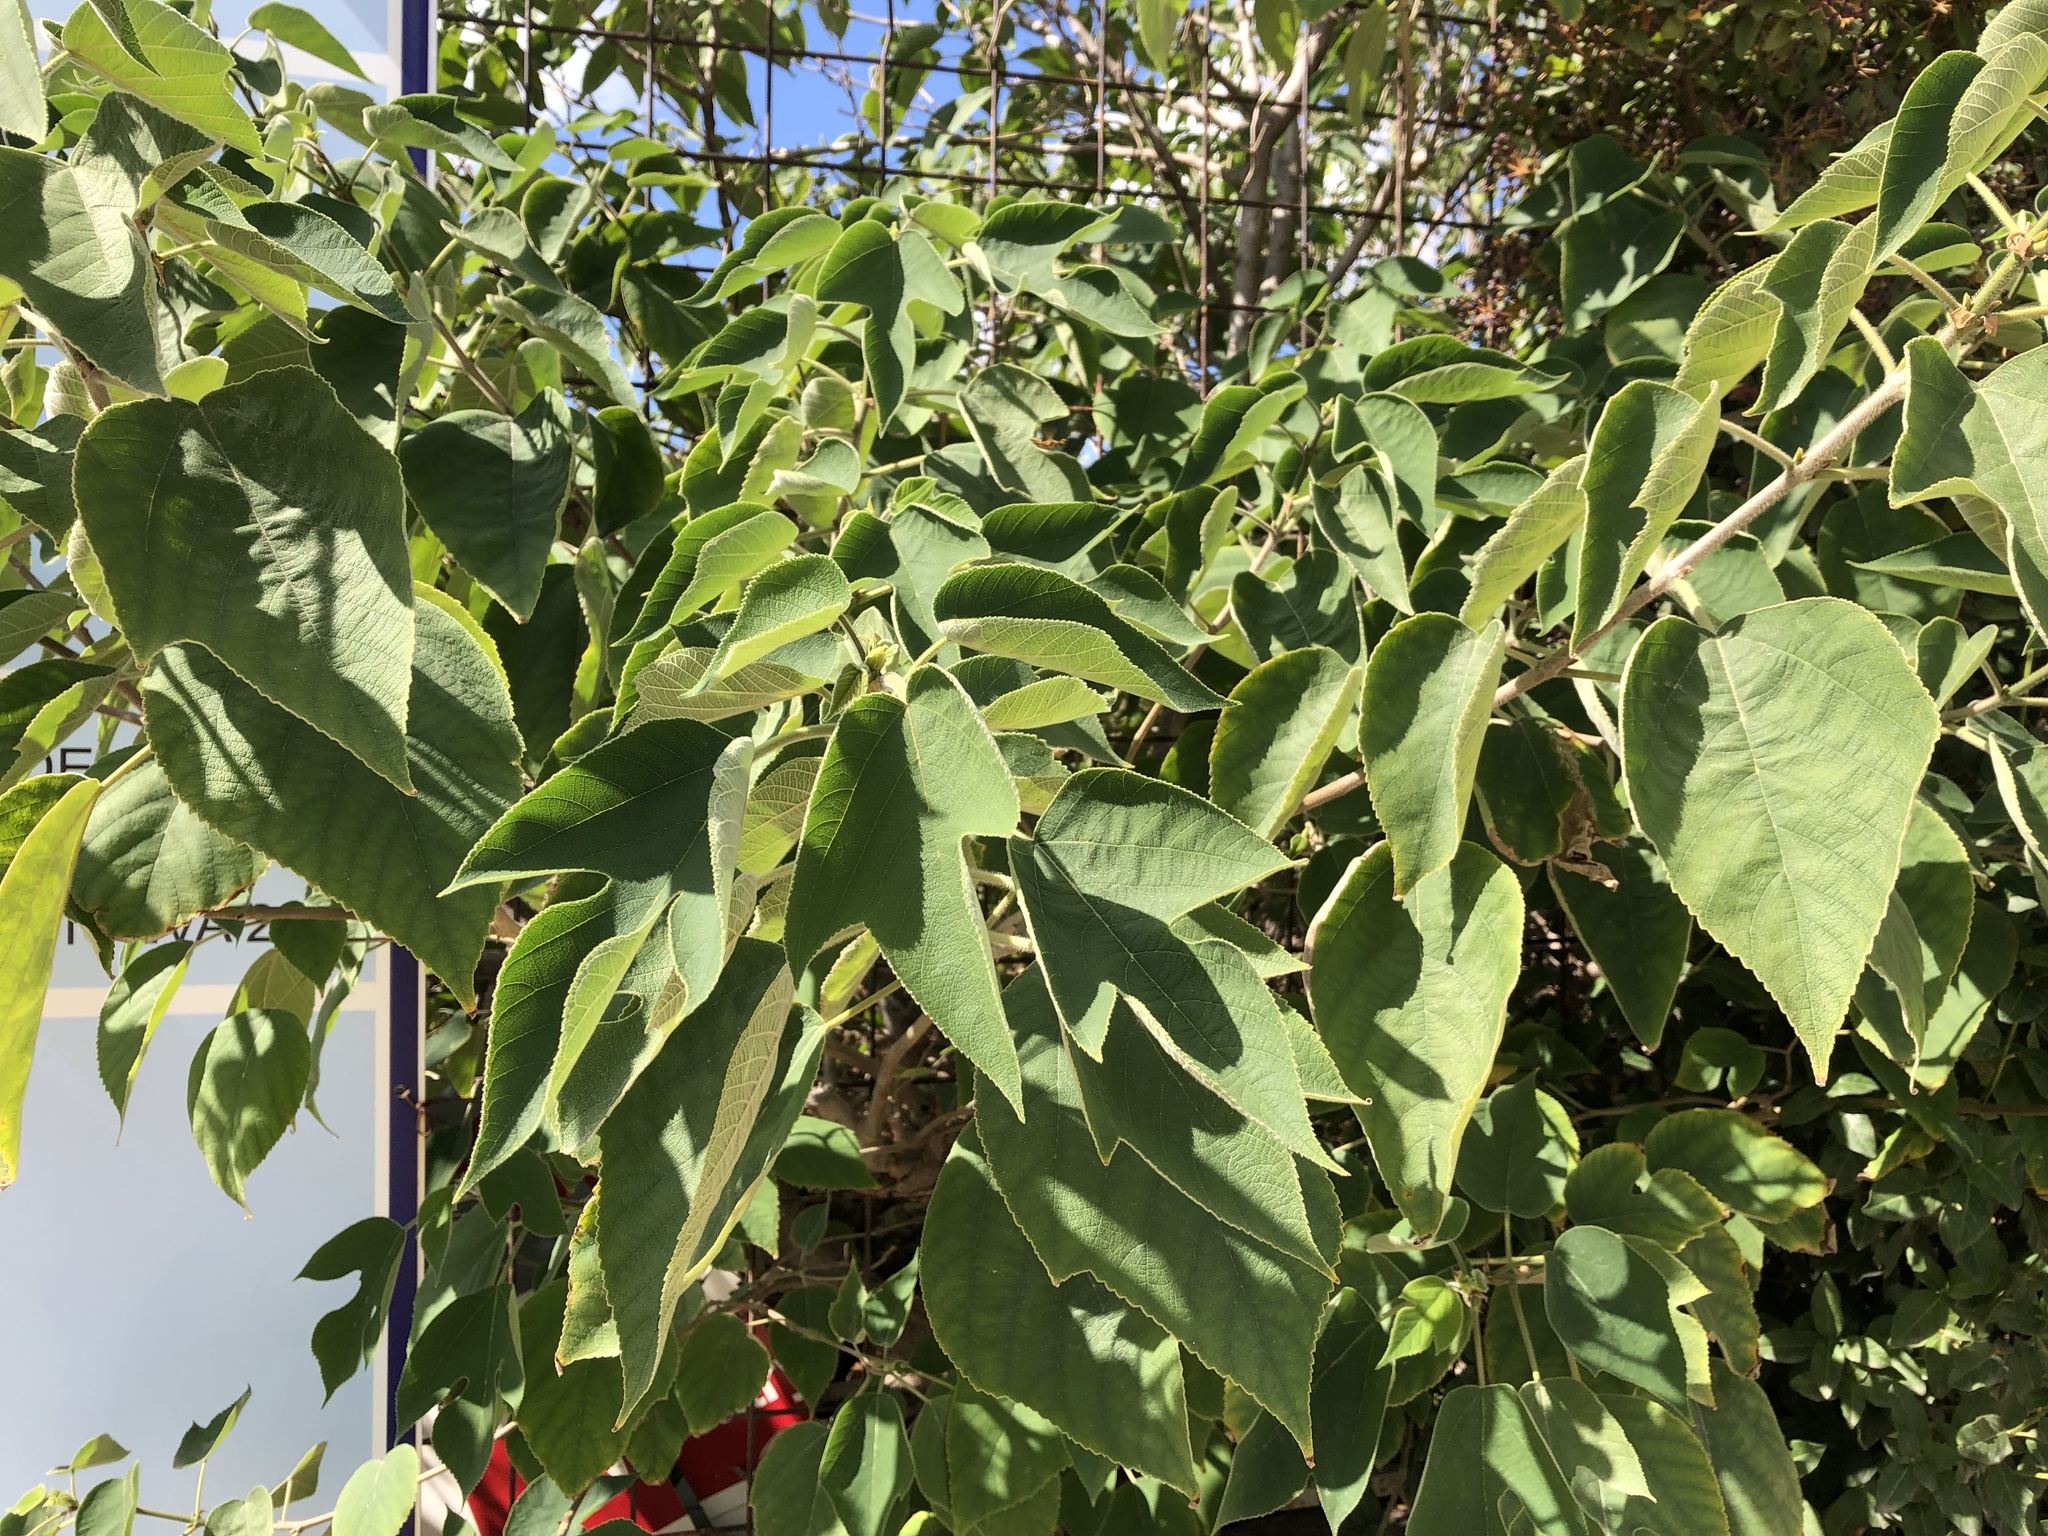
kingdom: Plantae
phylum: Tracheophyta
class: Magnoliopsida
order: Rosales
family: Moraceae
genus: Broussonetia
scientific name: Broussonetia papyrifera
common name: Paper mulberry
